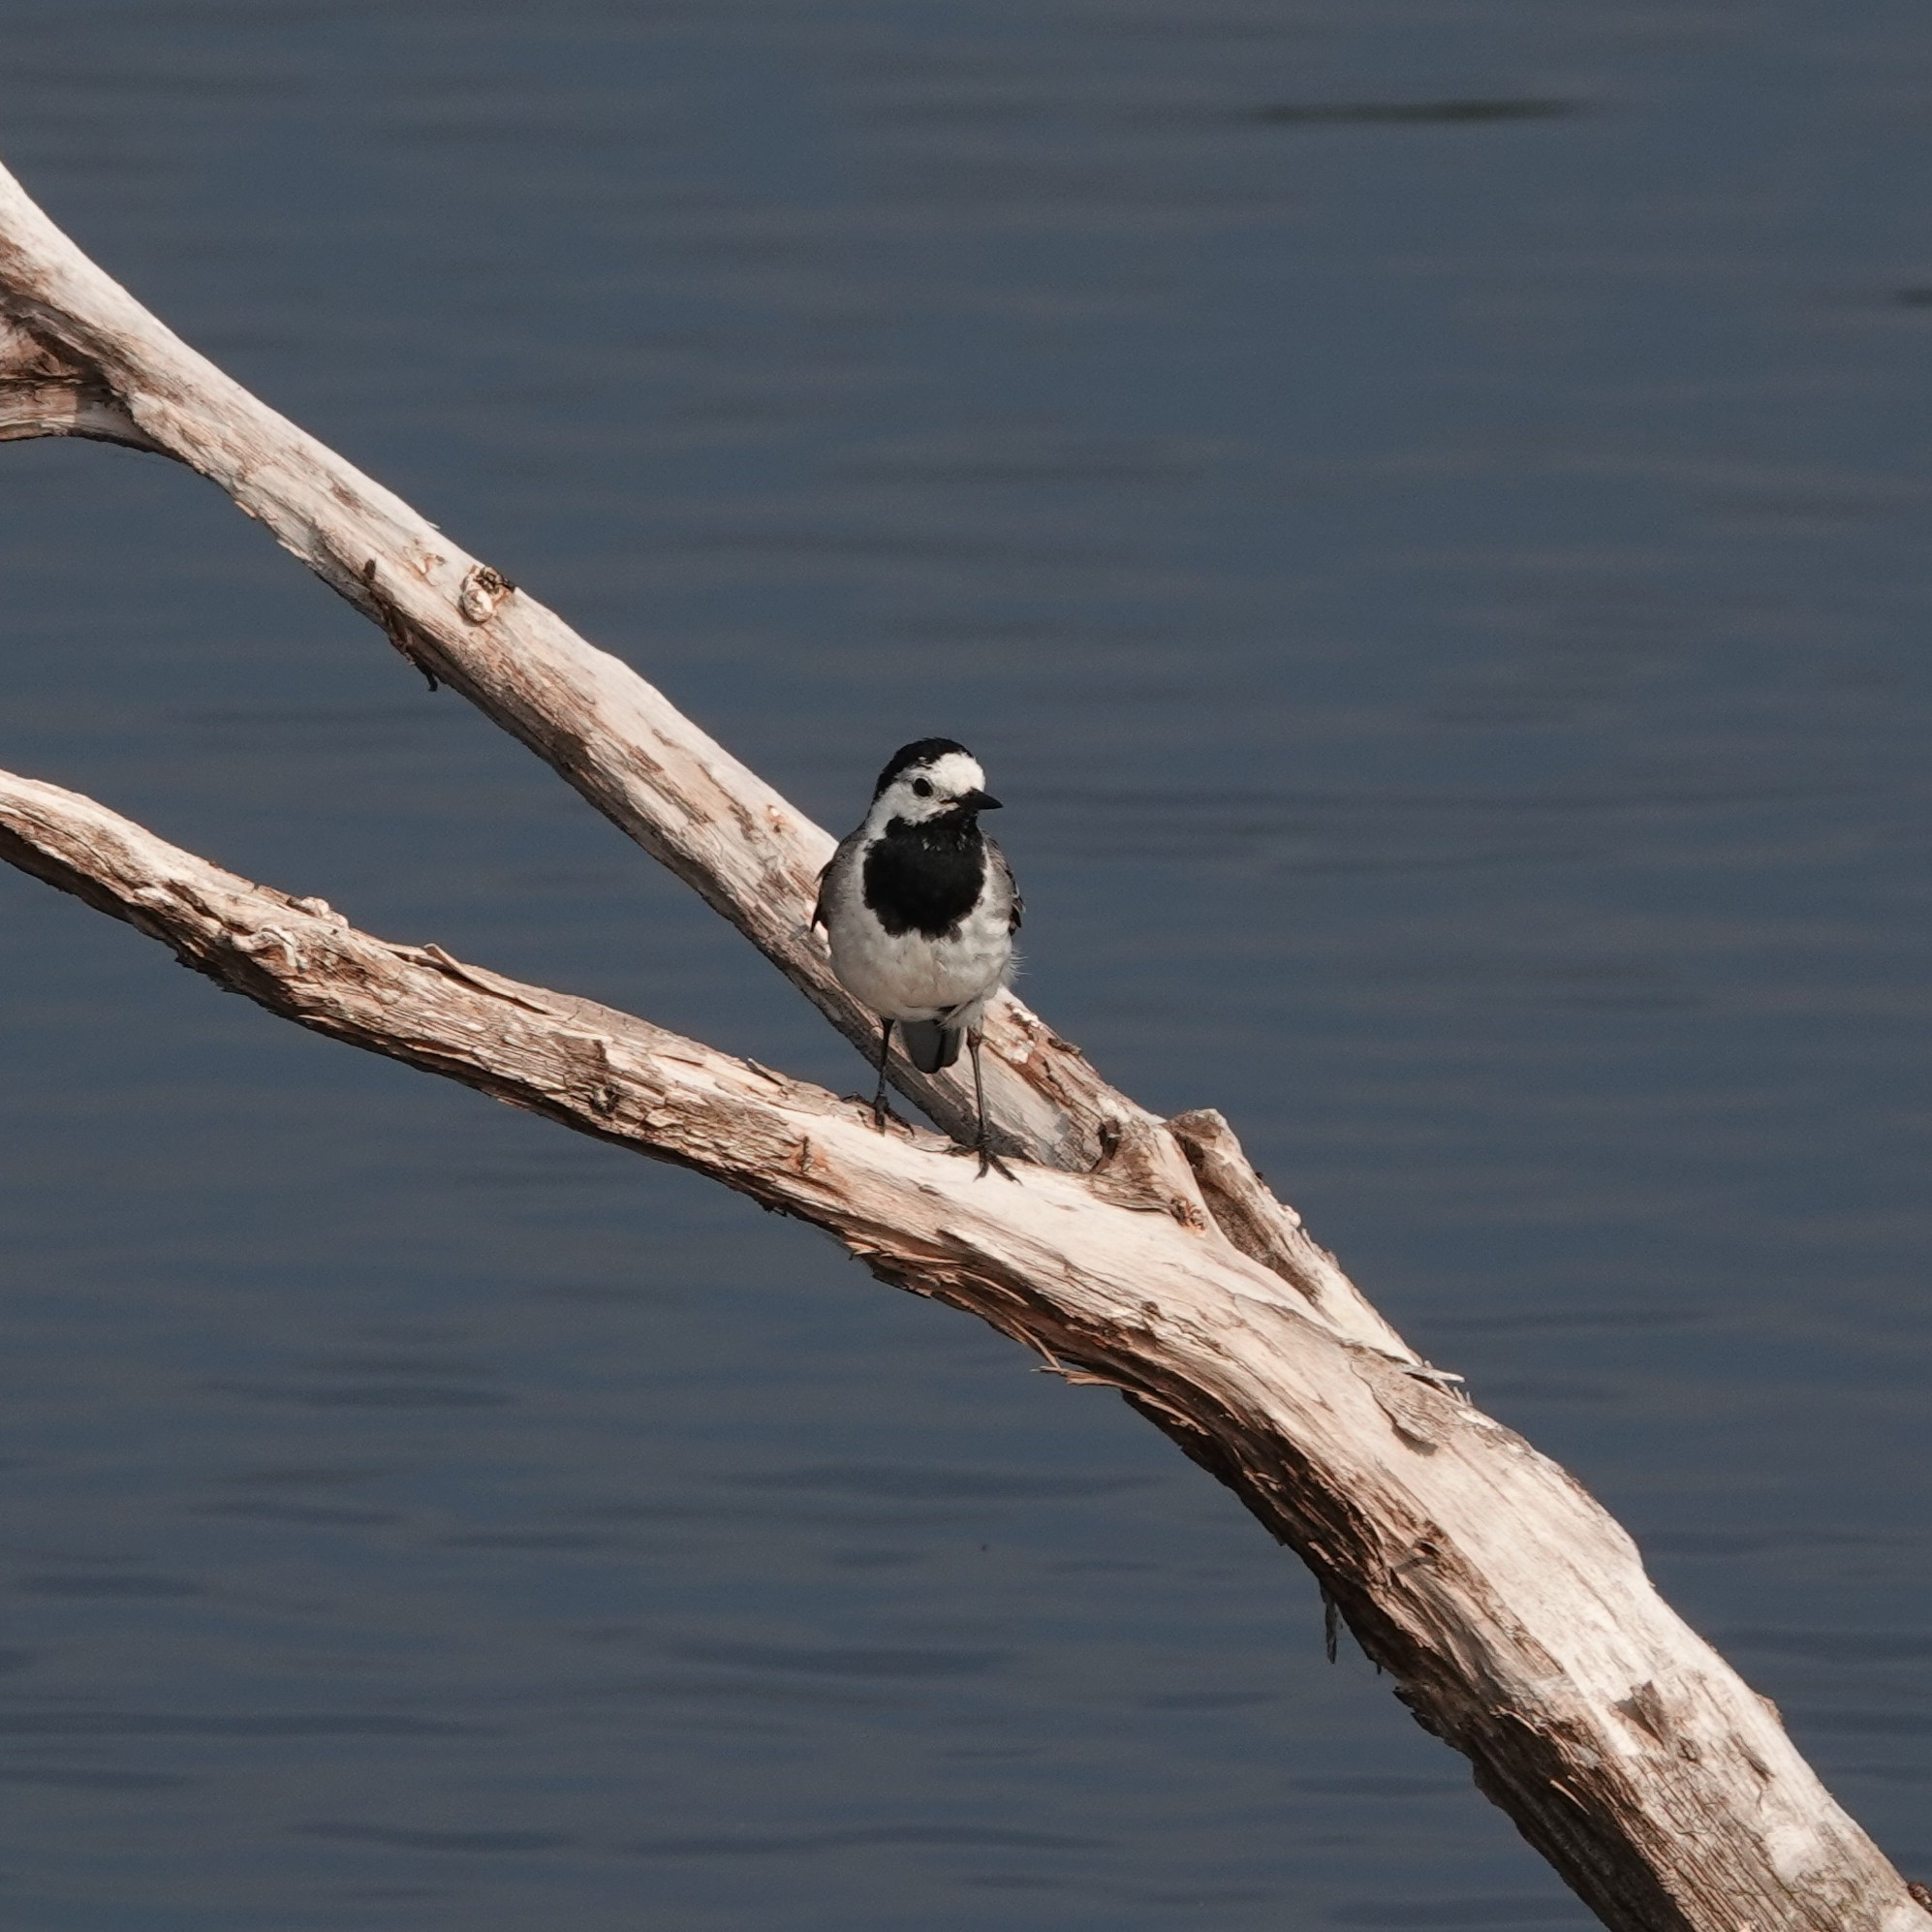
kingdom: Animalia
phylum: Chordata
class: Aves
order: Passeriformes
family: Motacillidae
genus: Motacilla
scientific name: Motacilla alba
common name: White wagtail
